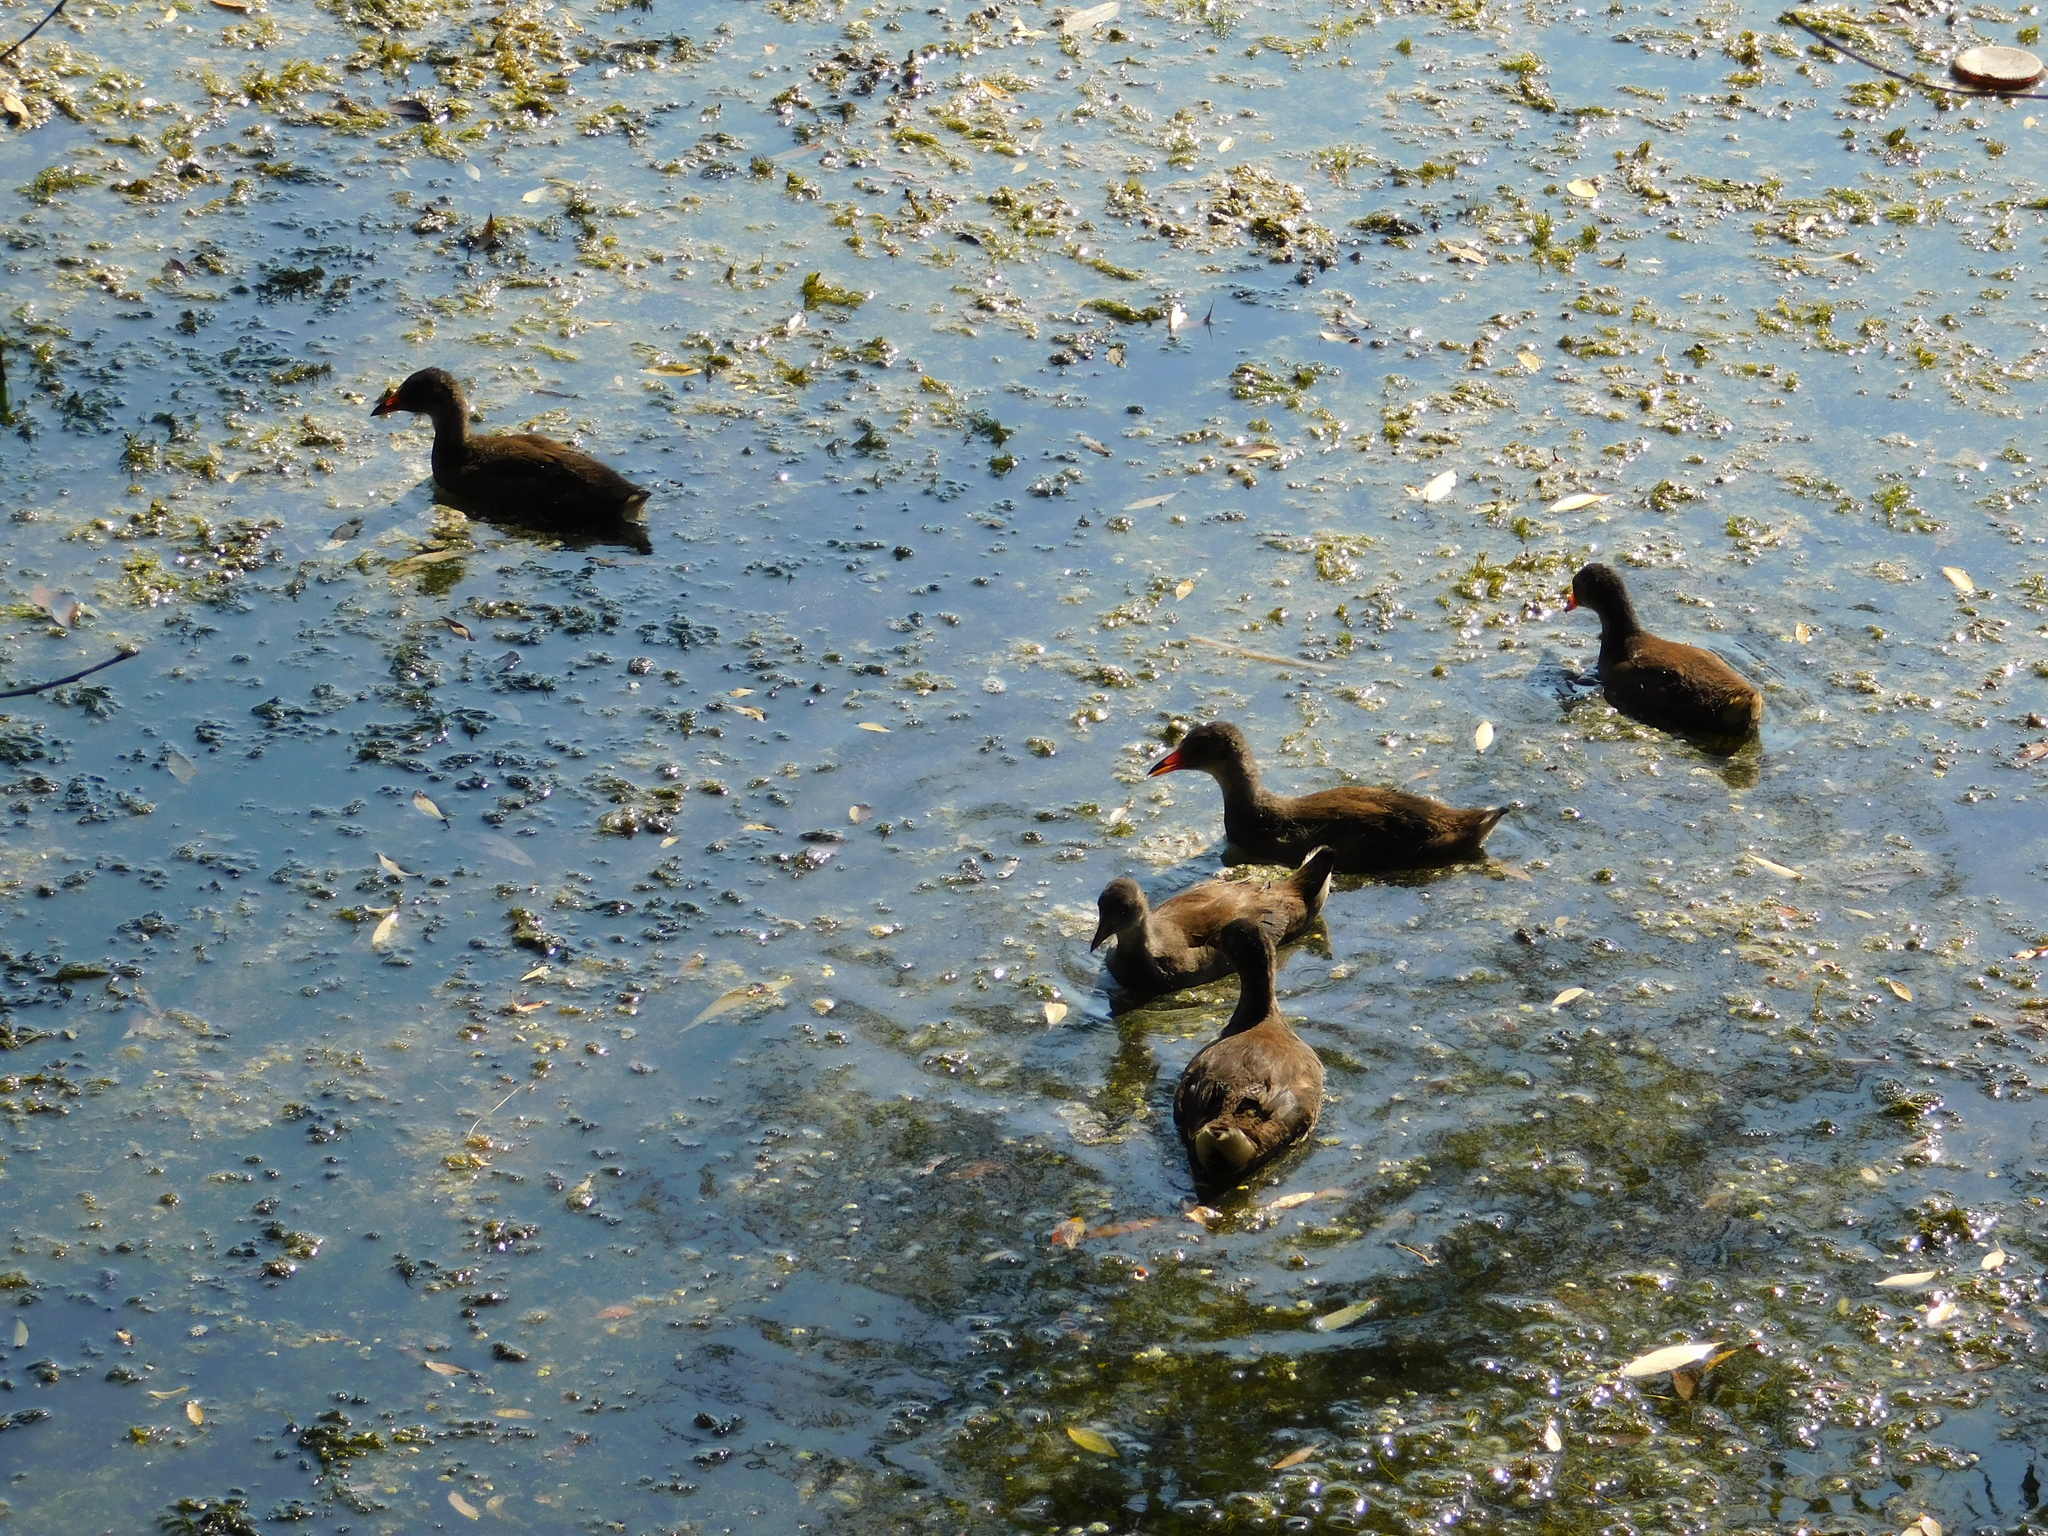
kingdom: Animalia
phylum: Chordata
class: Aves
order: Gruiformes
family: Rallidae
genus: Gallinula
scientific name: Gallinula chloropus
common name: Common moorhen
